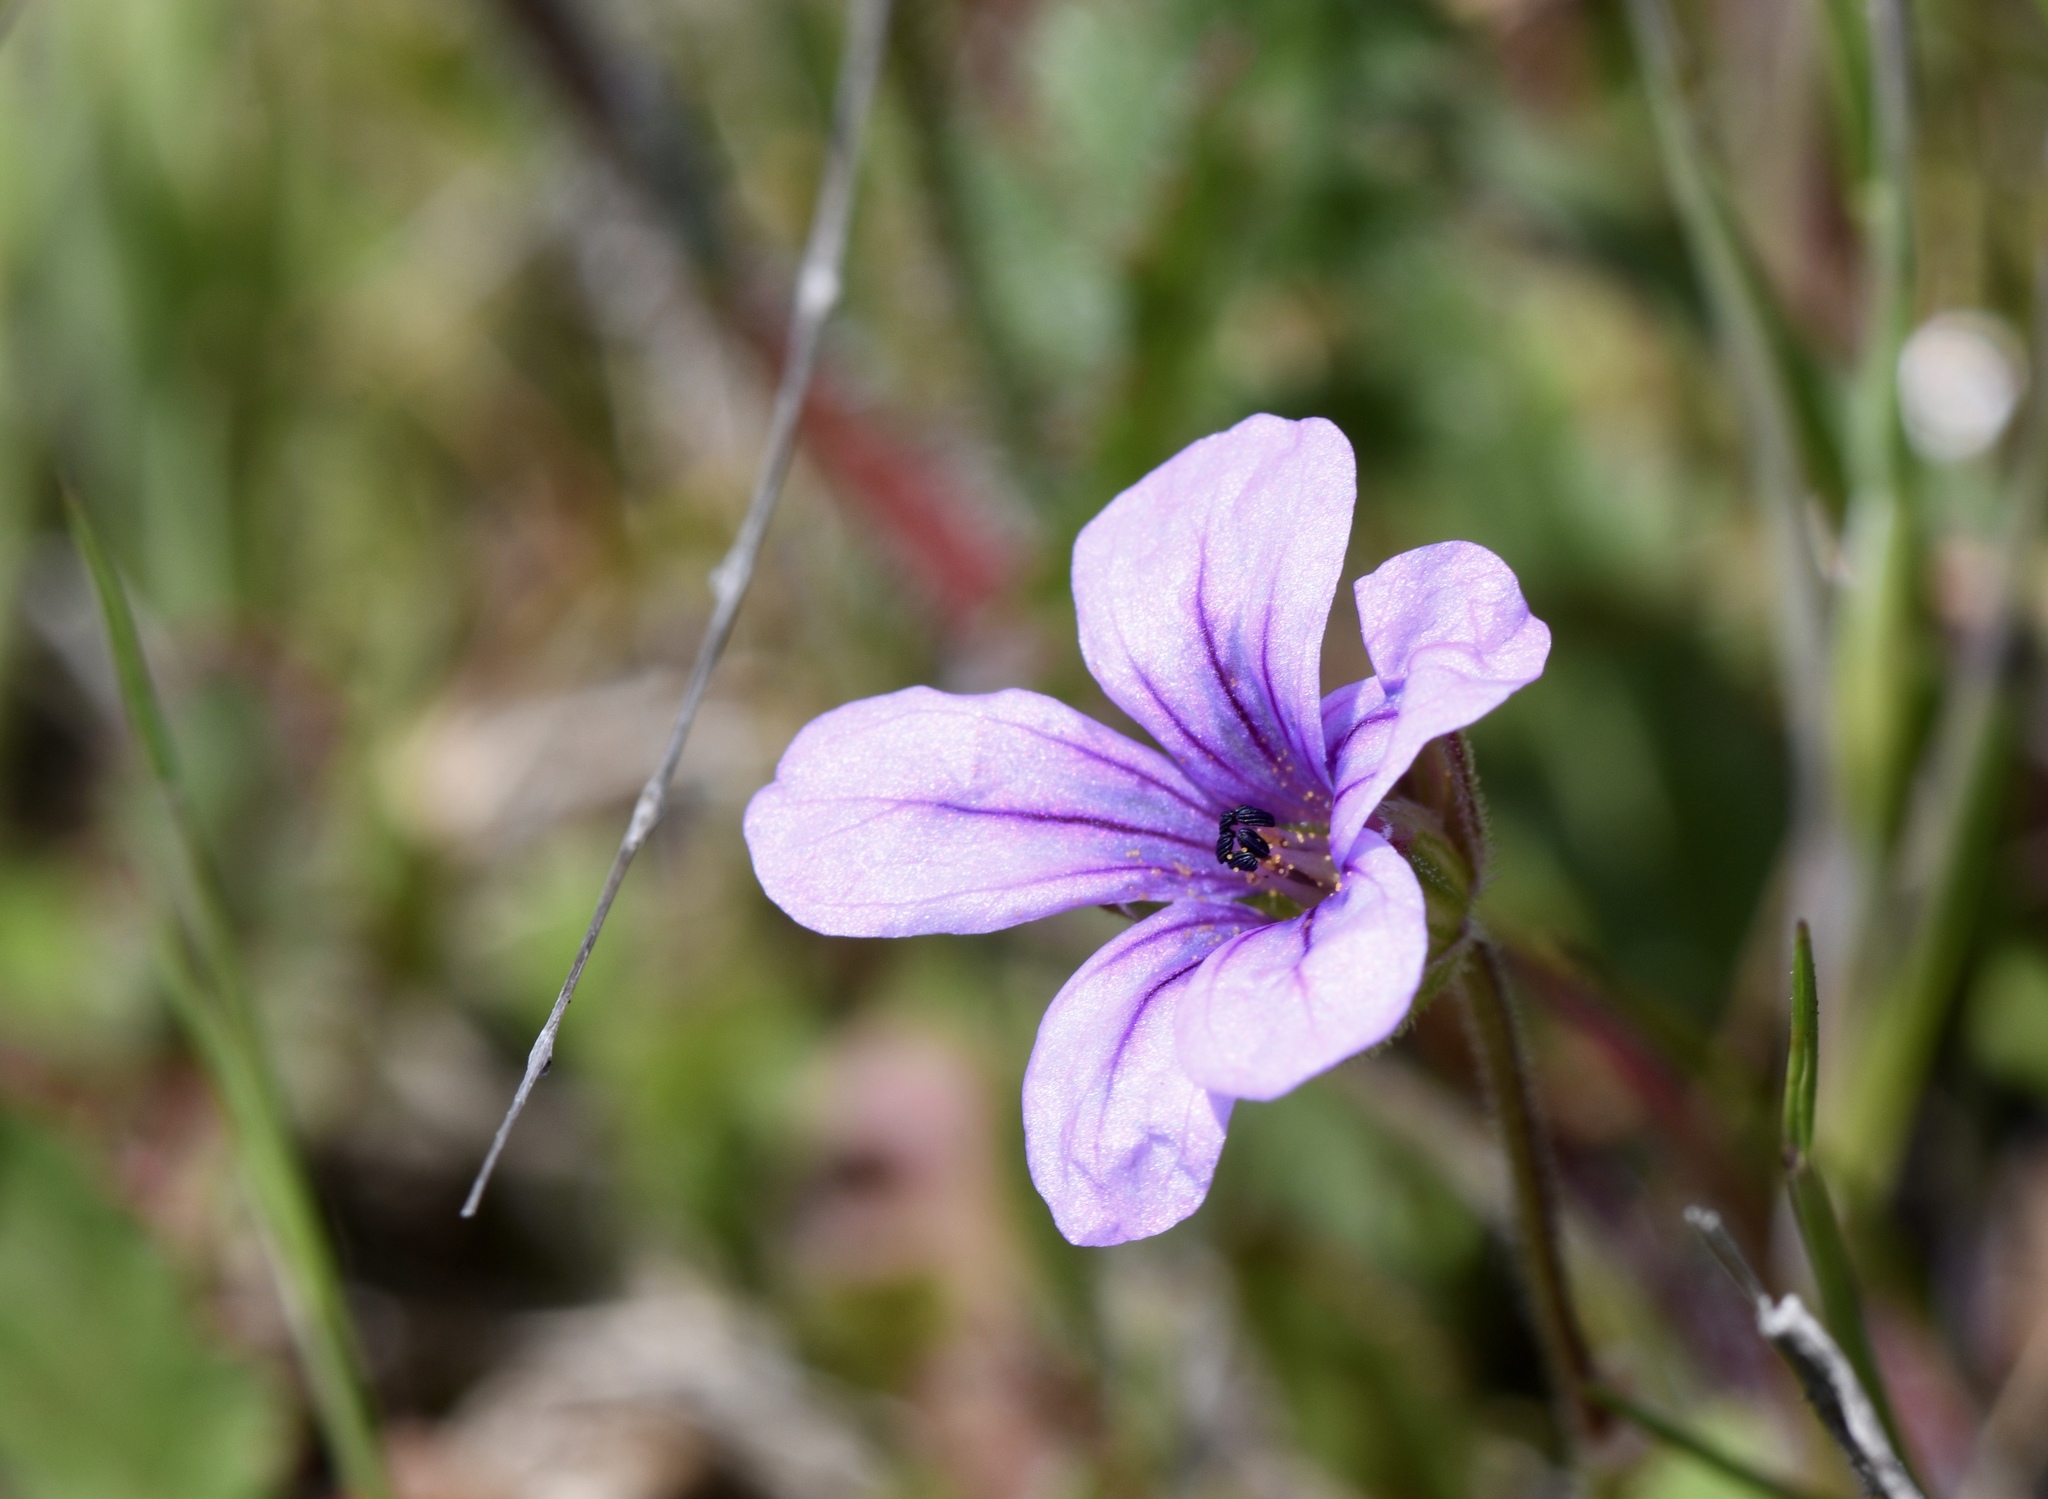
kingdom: Plantae
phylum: Tracheophyta
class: Magnoliopsida
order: Geraniales
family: Geraniaceae
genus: Erodium
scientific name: Erodium botrys
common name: Mediterranean stork's-bill
